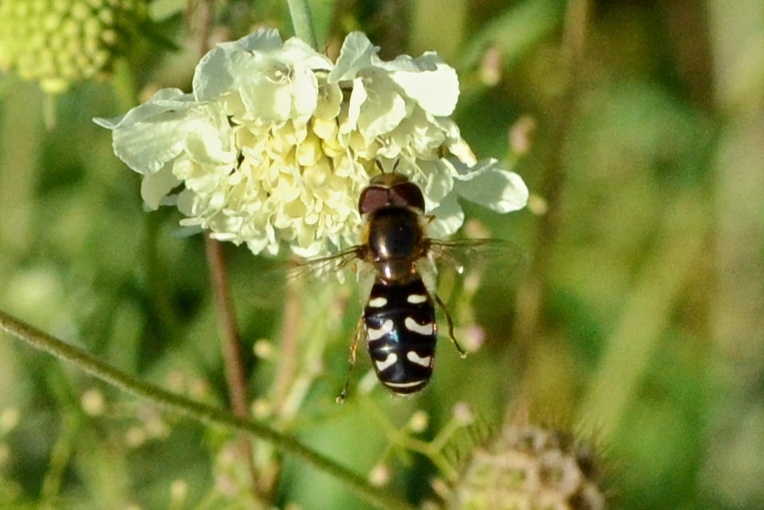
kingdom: Animalia
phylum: Arthropoda
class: Insecta
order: Diptera
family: Syrphidae
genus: Scaeva
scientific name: Scaeva pyrastri
